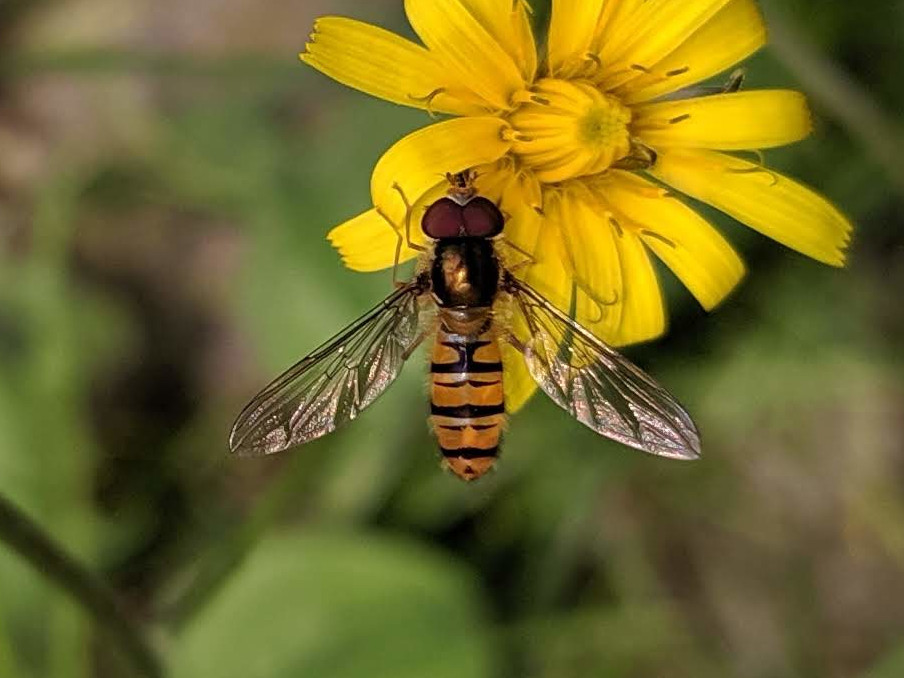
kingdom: Animalia
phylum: Arthropoda
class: Insecta
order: Diptera
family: Syrphidae
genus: Episyrphus
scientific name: Episyrphus balteatus
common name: Marmalade hoverfly
